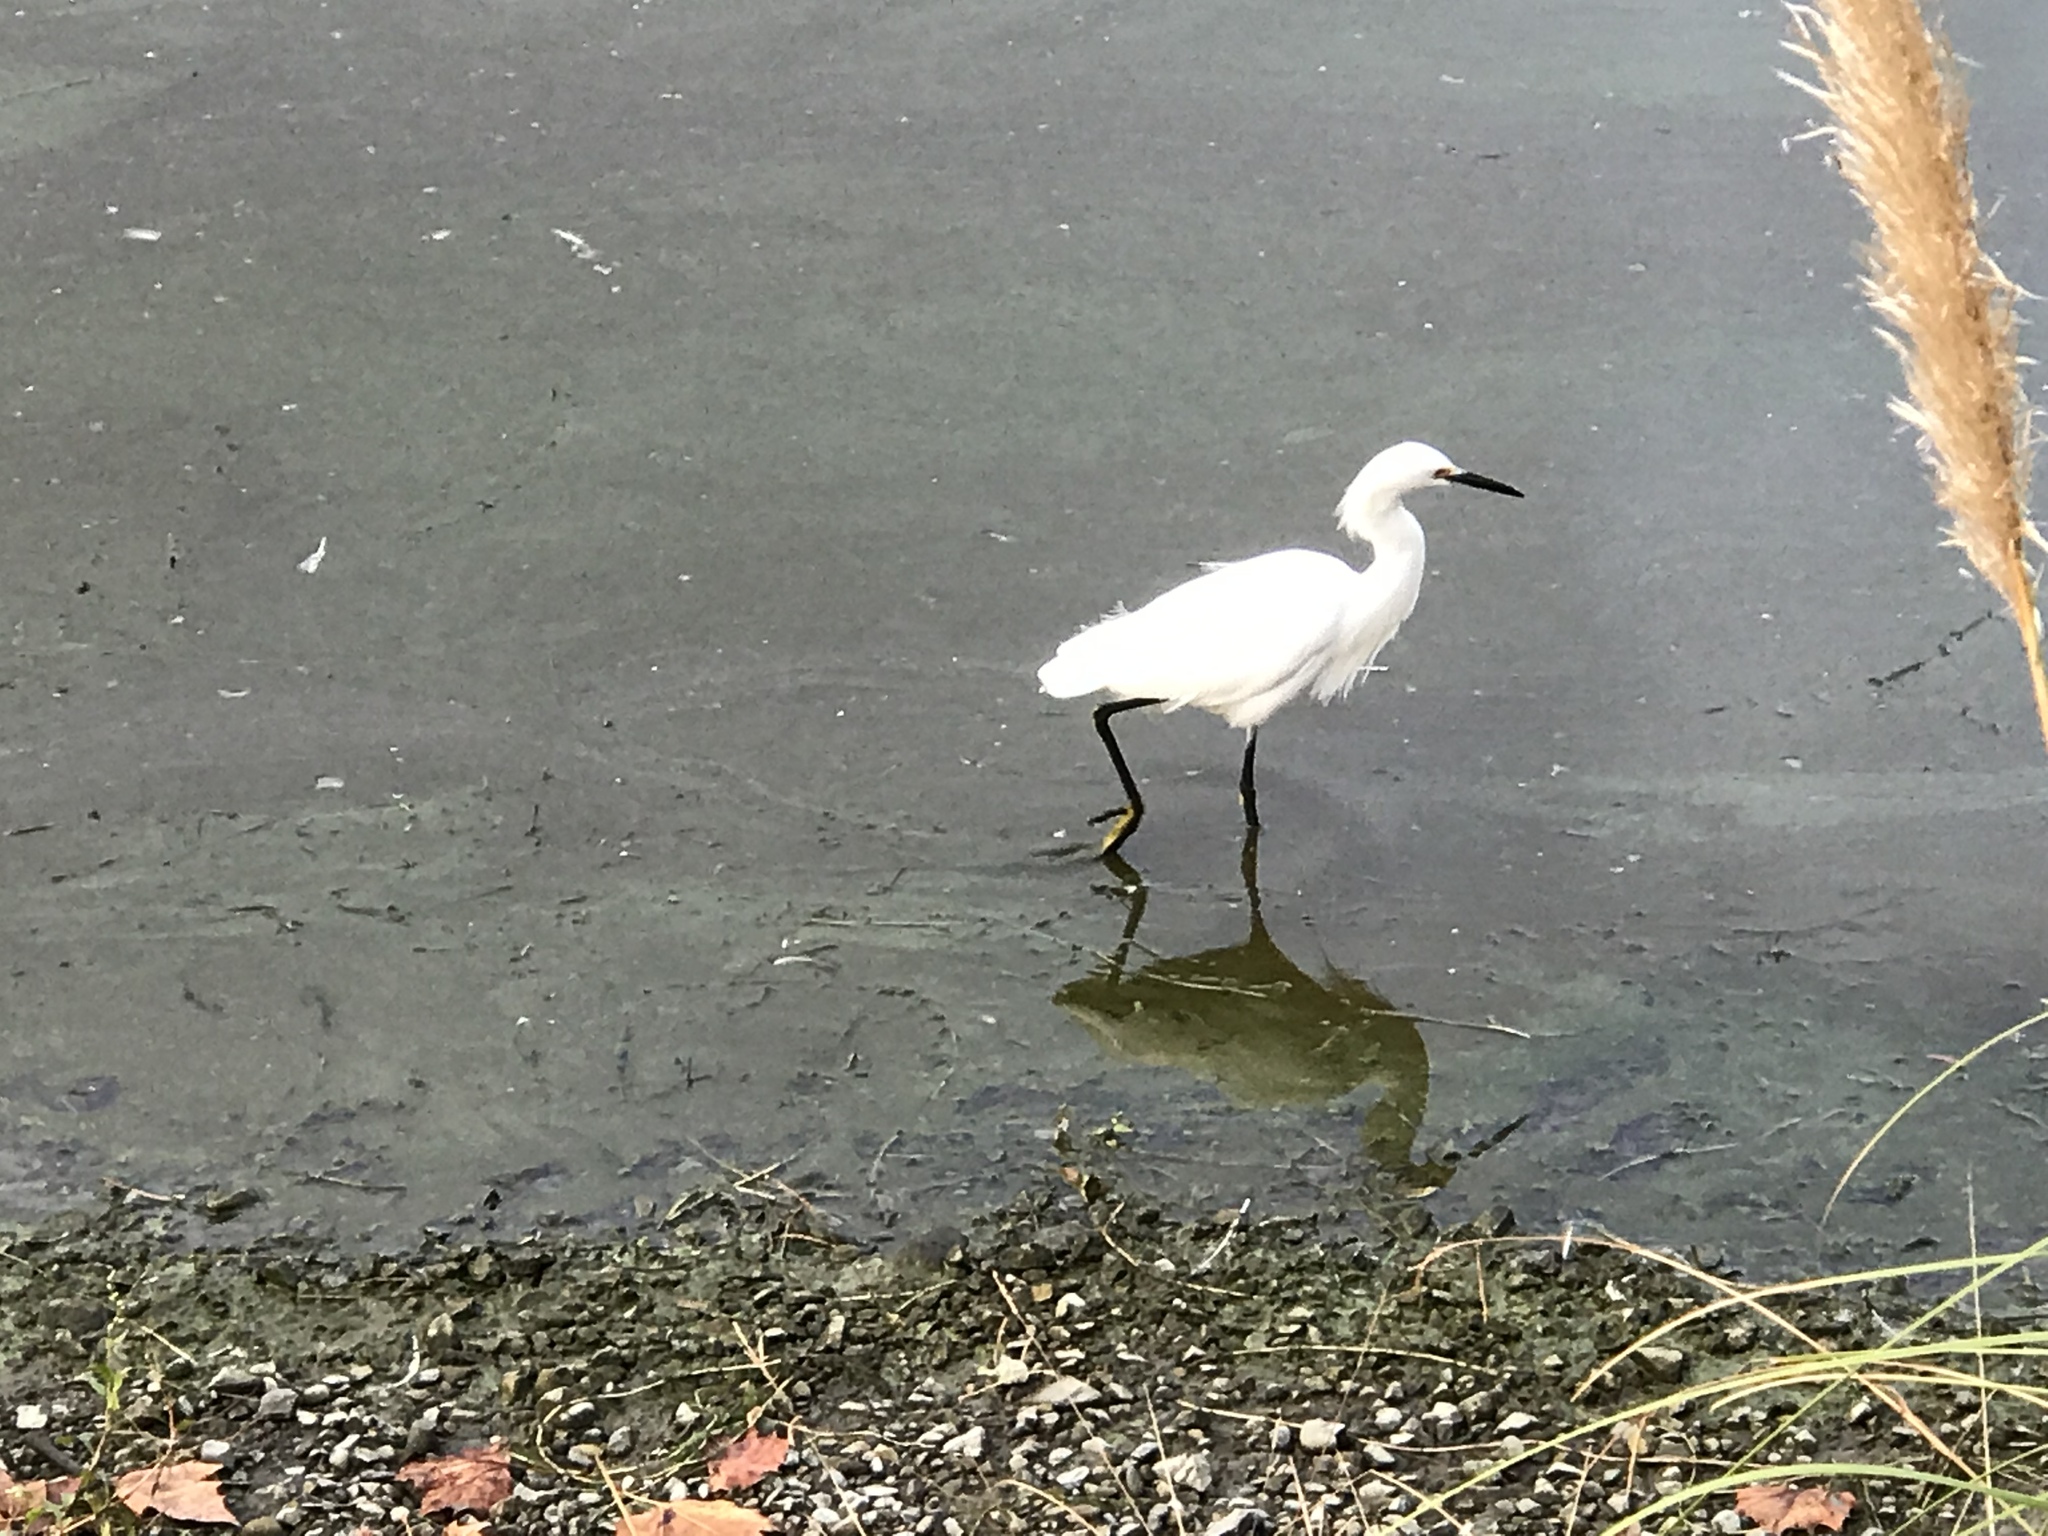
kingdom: Animalia
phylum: Chordata
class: Aves
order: Pelecaniformes
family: Ardeidae
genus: Egretta
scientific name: Egretta thula
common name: Snowy egret
